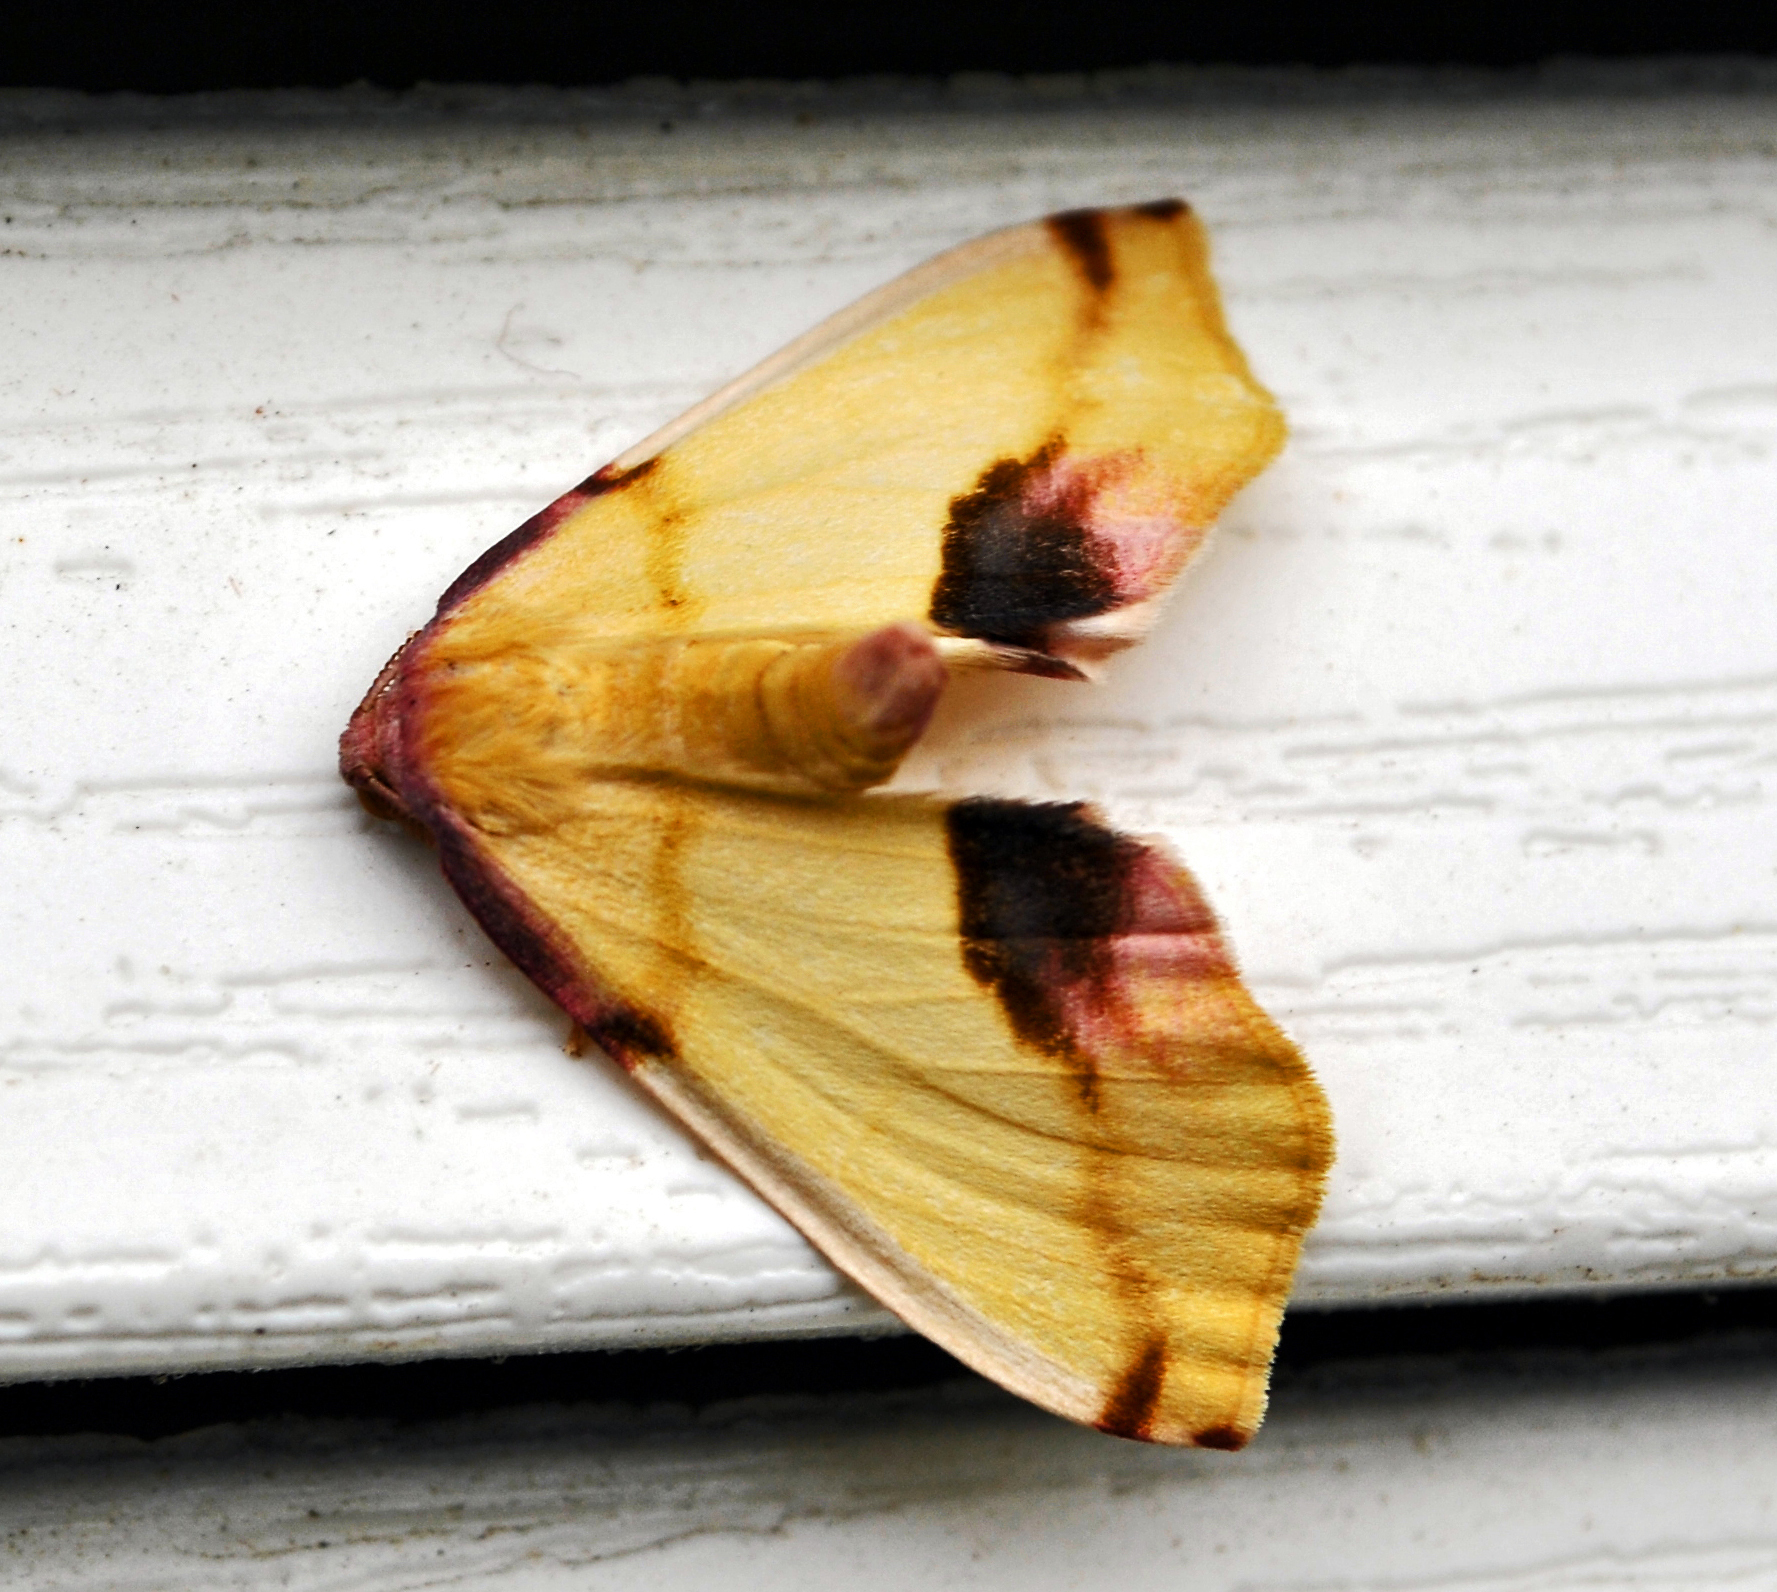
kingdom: Animalia
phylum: Arthropoda
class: Insecta
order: Lepidoptera
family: Geometridae
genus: Plagodis
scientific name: Plagodis serinaria
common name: Lemon plagodis
